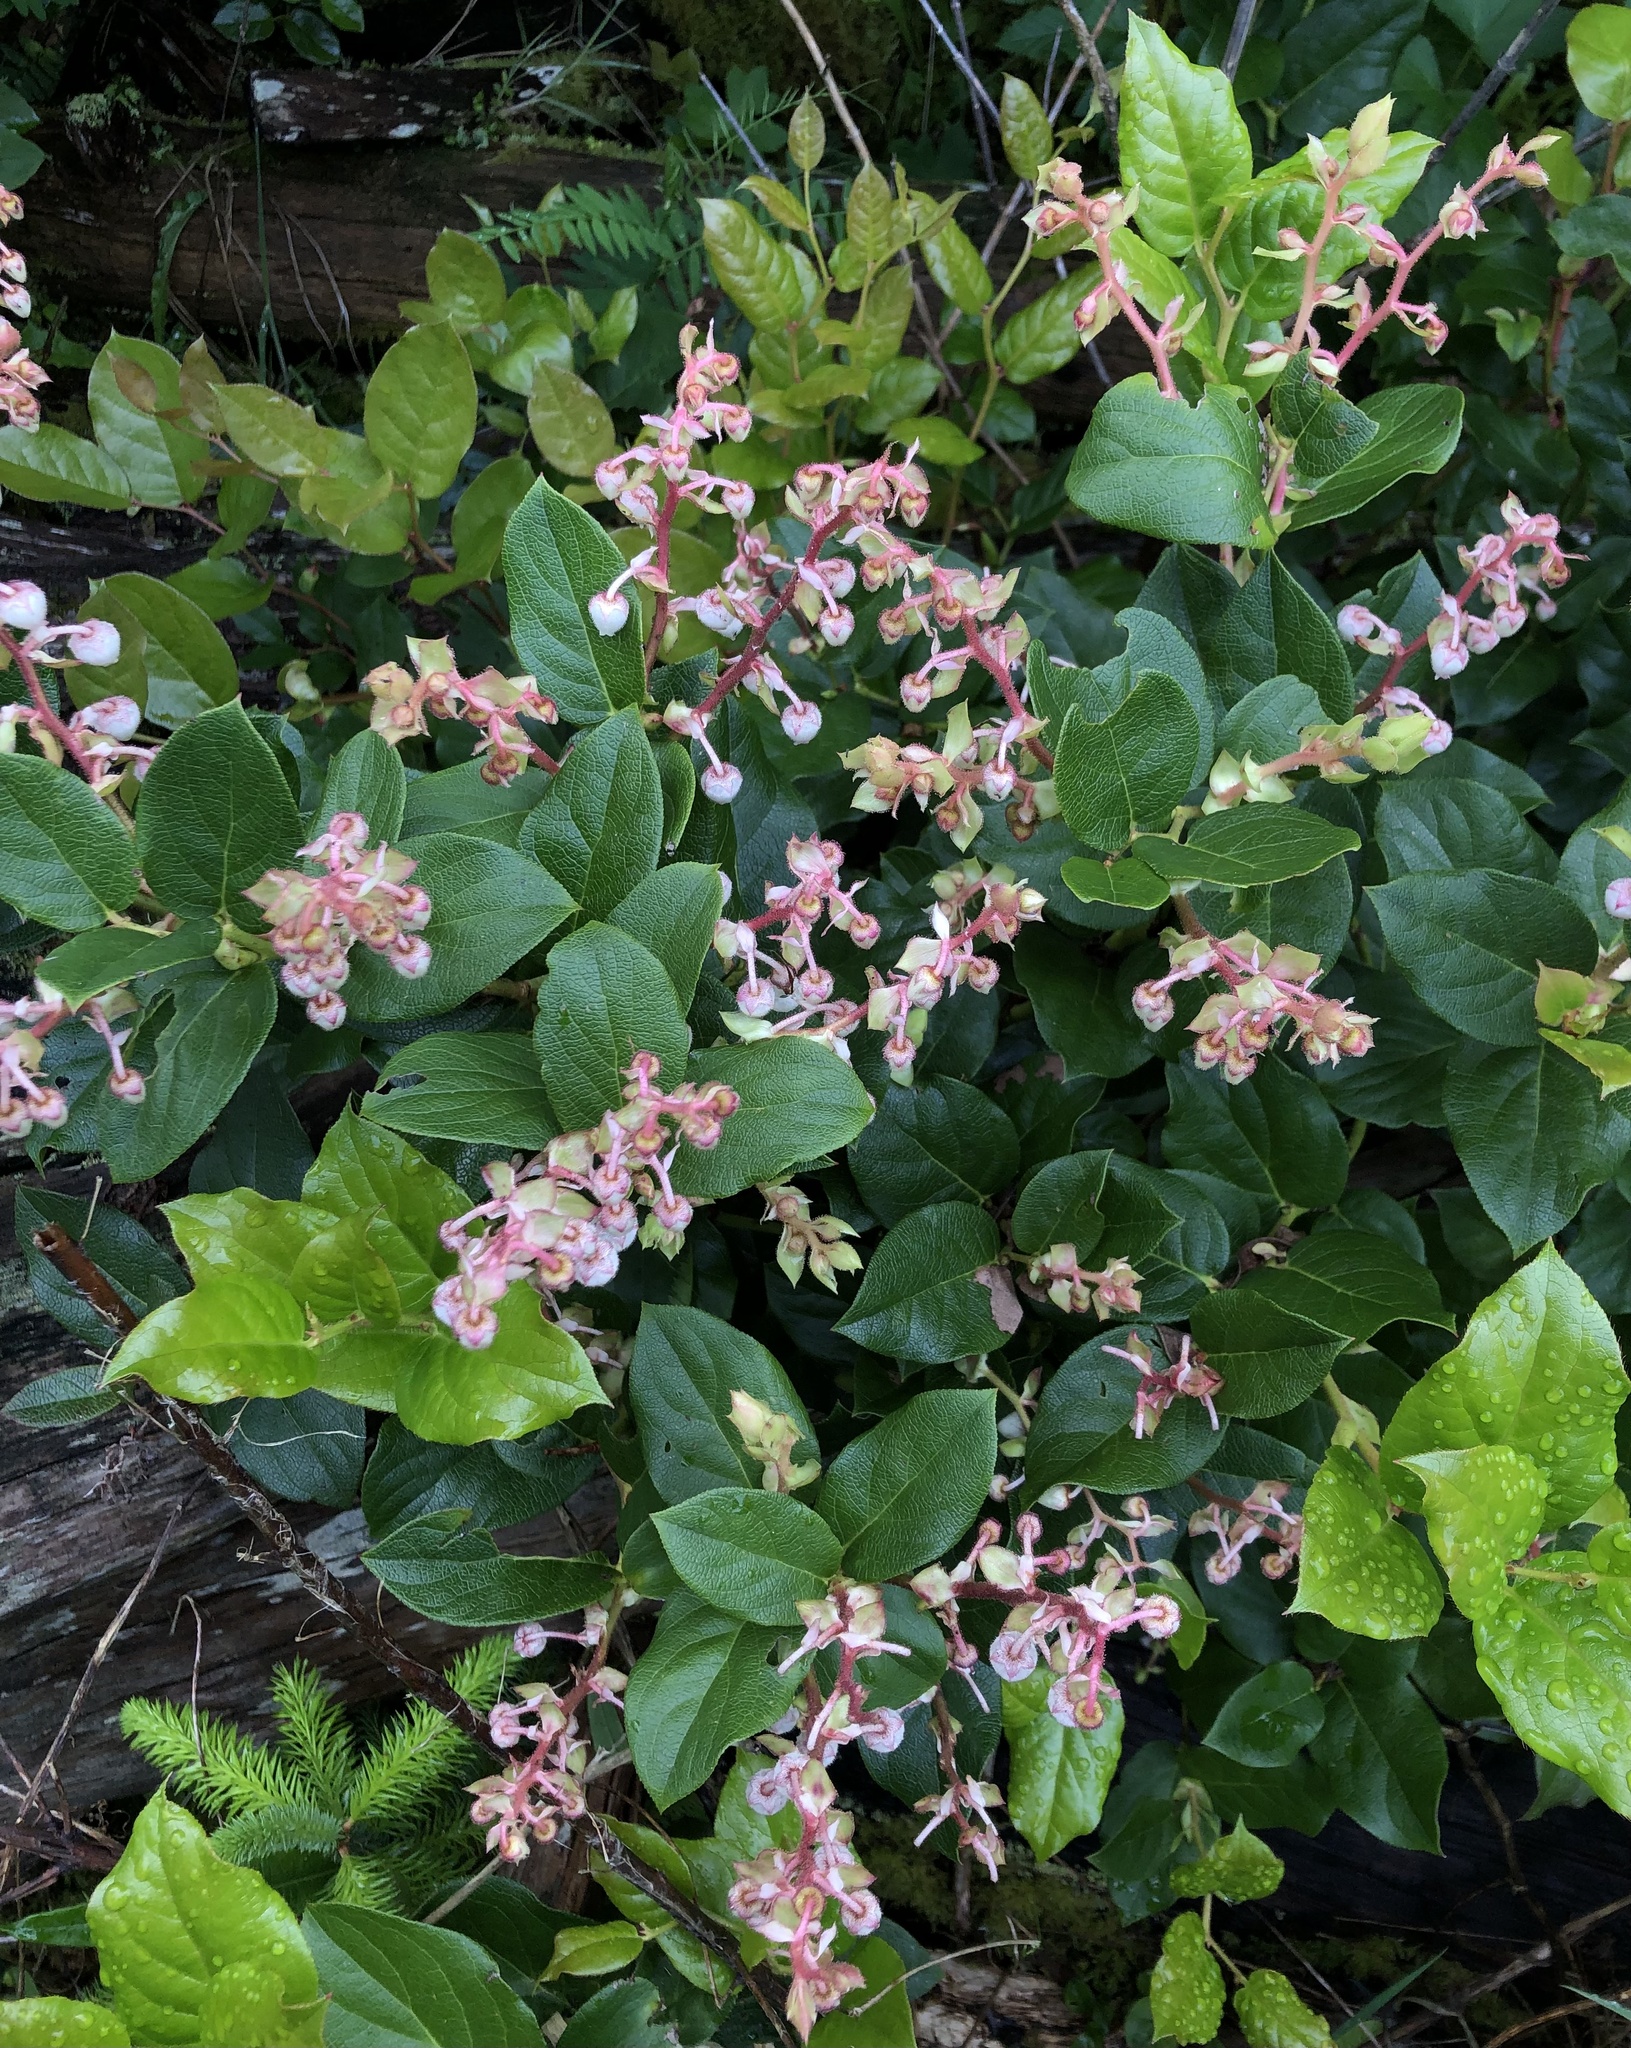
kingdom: Plantae
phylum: Tracheophyta
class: Magnoliopsida
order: Ericales
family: Ericaceae
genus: Gaultheria
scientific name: Gaultheria shallon
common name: Shallon
